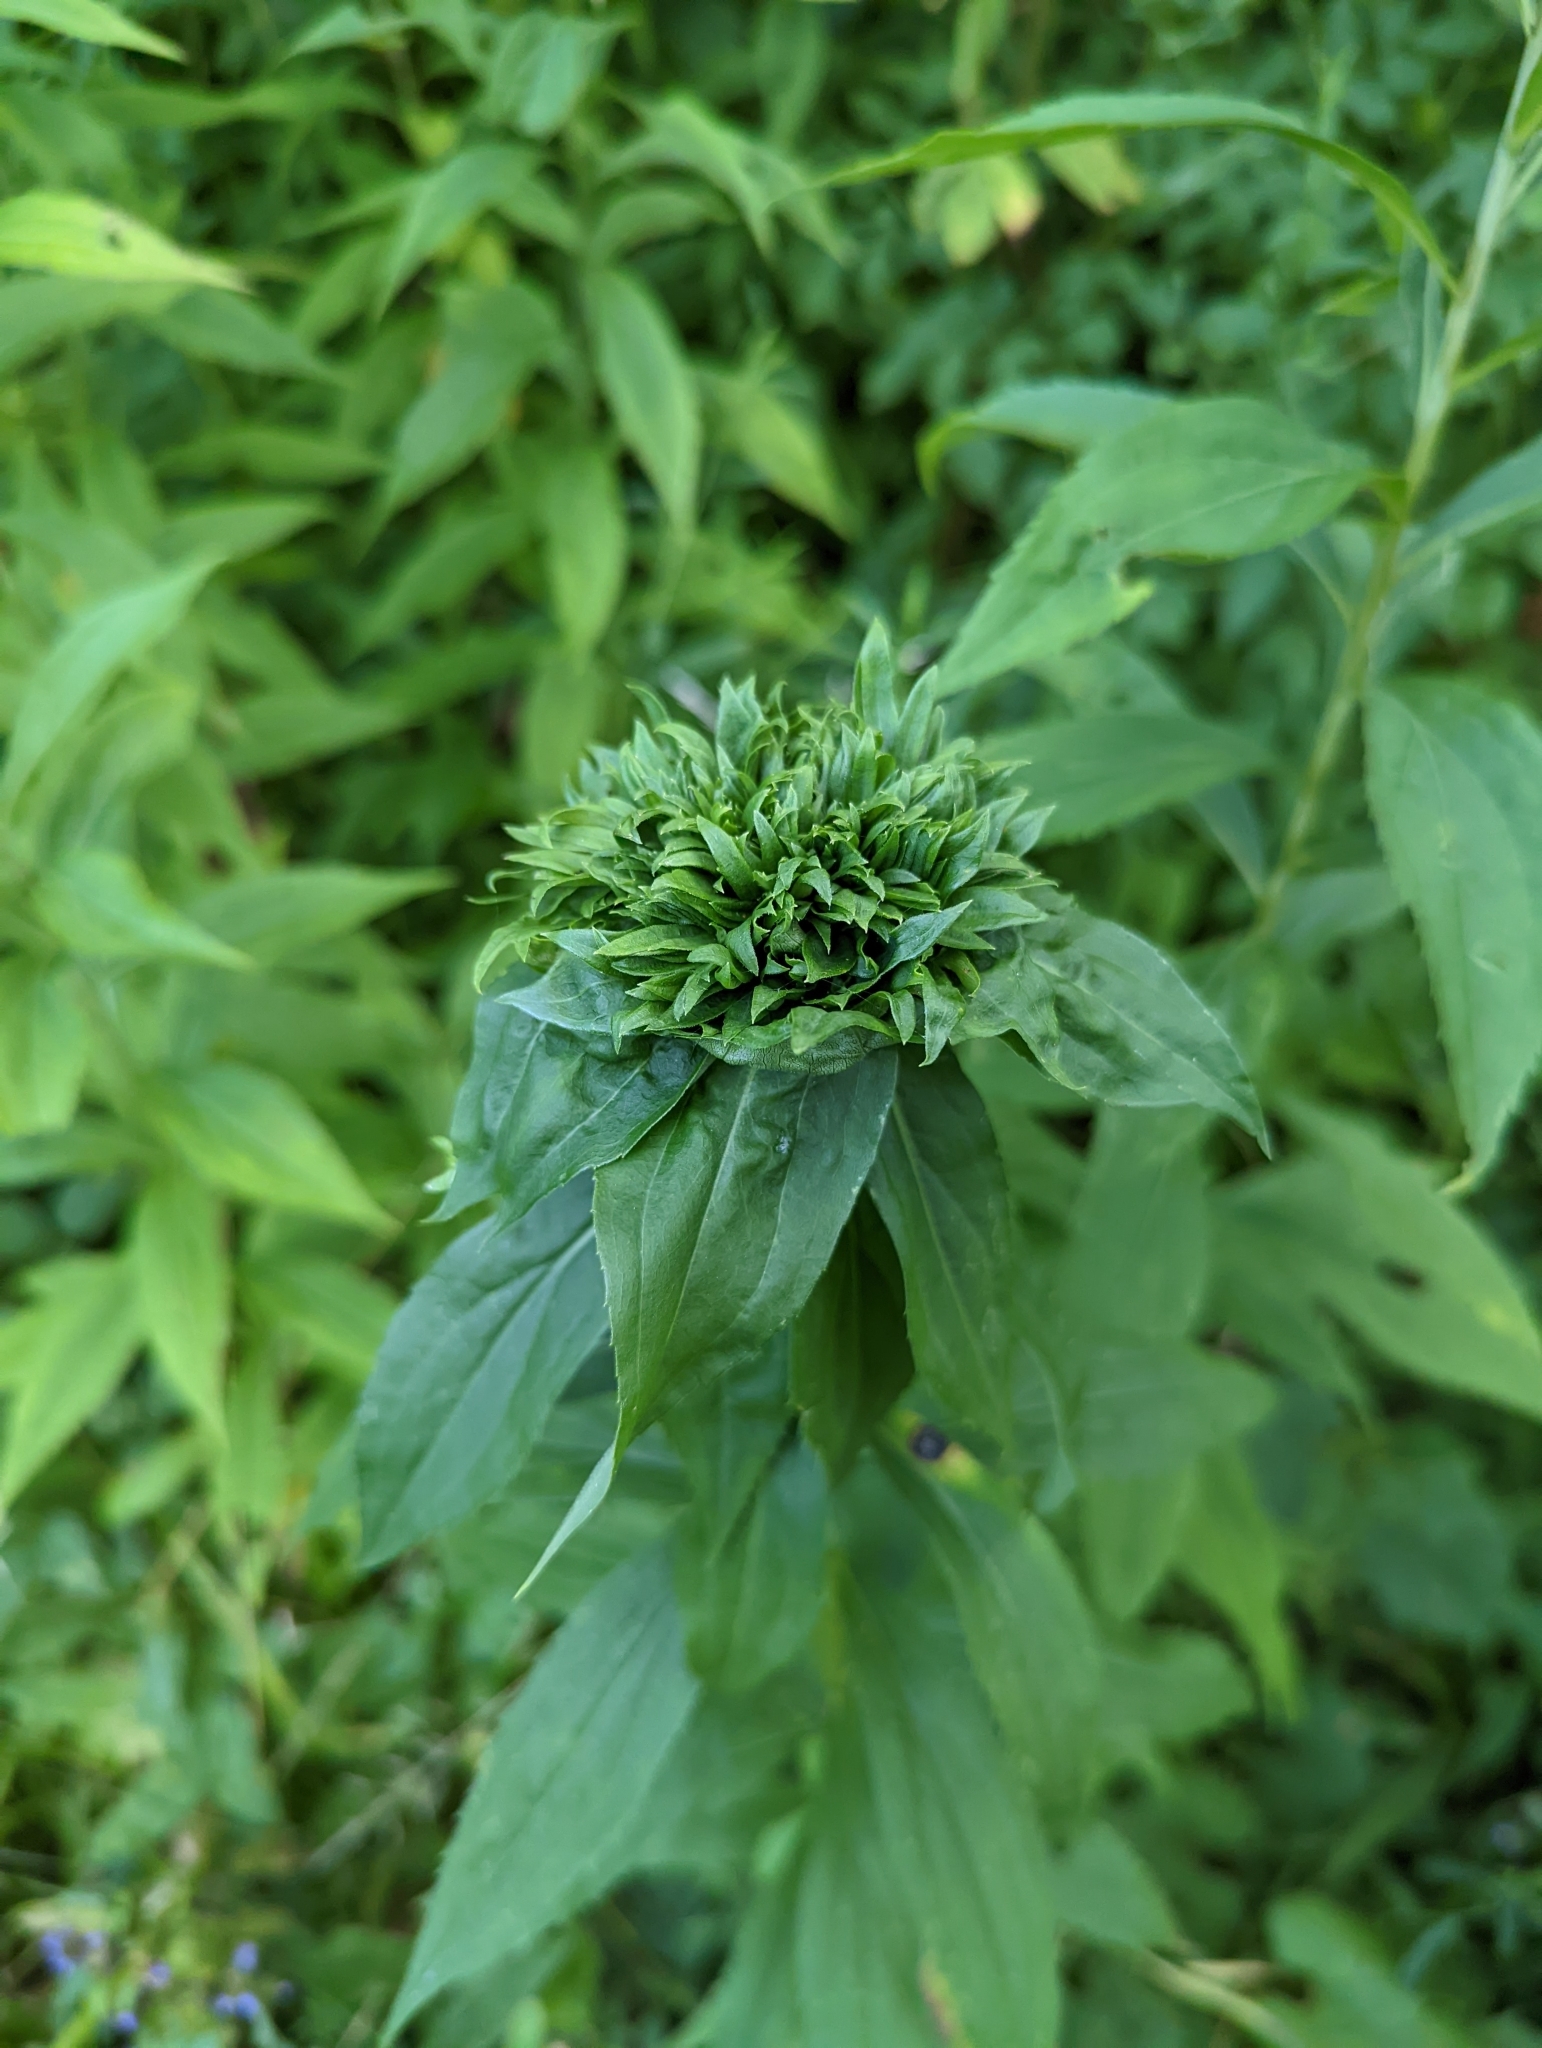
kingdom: Animalia
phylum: Arthropoda
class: Insecta
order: Diptera
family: Cecidomyiidae
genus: Rhopalomyia
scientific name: Rhopalomyia capitata
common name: Giant goldenrod bunch gall midge
